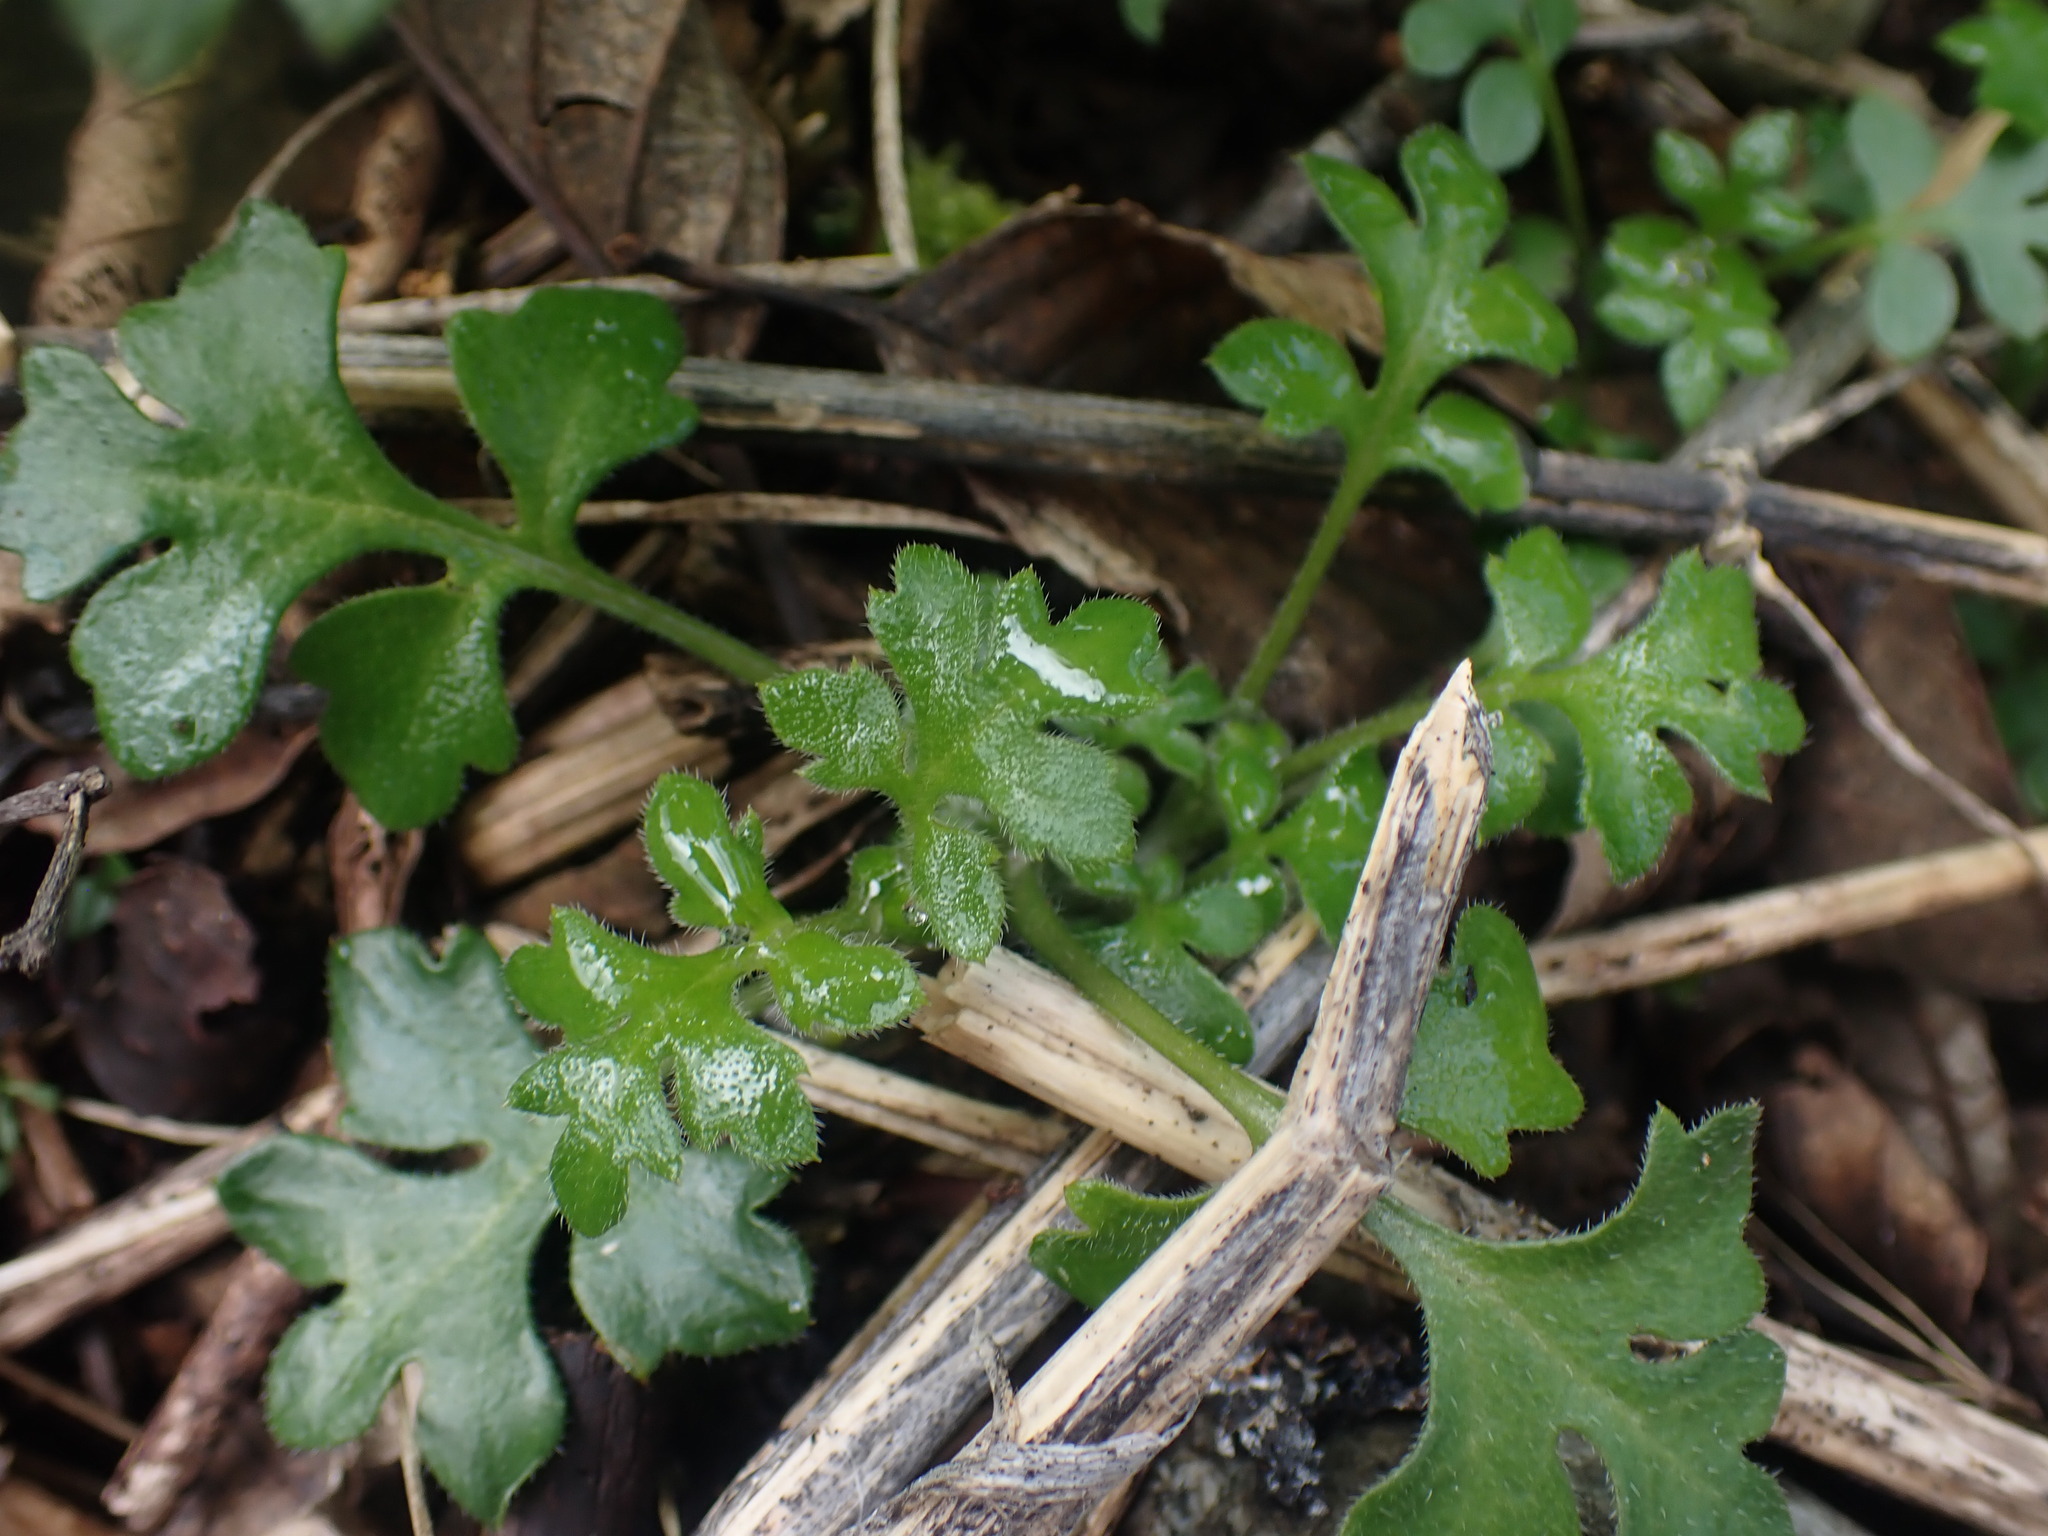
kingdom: Plantae
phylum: Tracheophyta
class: Magnoliopsida
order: Boraginales
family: Hydrophyllaceae
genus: Nemophila
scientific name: Nemophila parviflora
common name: Small-flowered baby-blue-eyes
